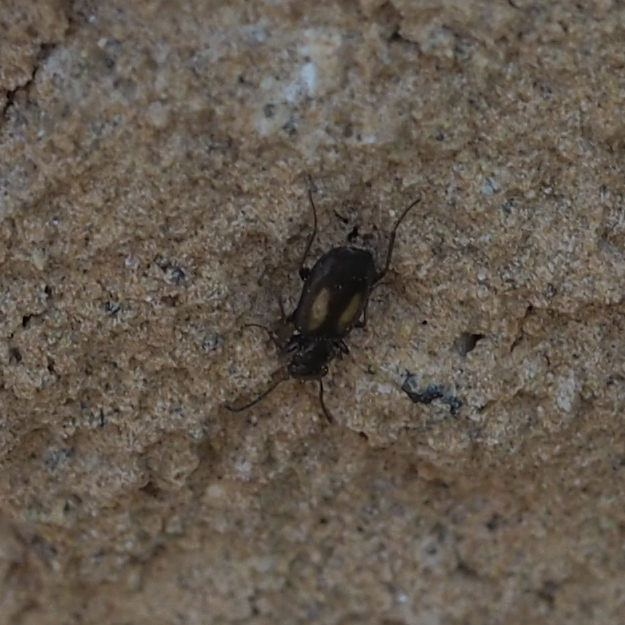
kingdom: Animalia
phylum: Arthropoda
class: Insecta
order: Coleoptera
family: Carabidae
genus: Microlestes
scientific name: Microlestes plagiatus
